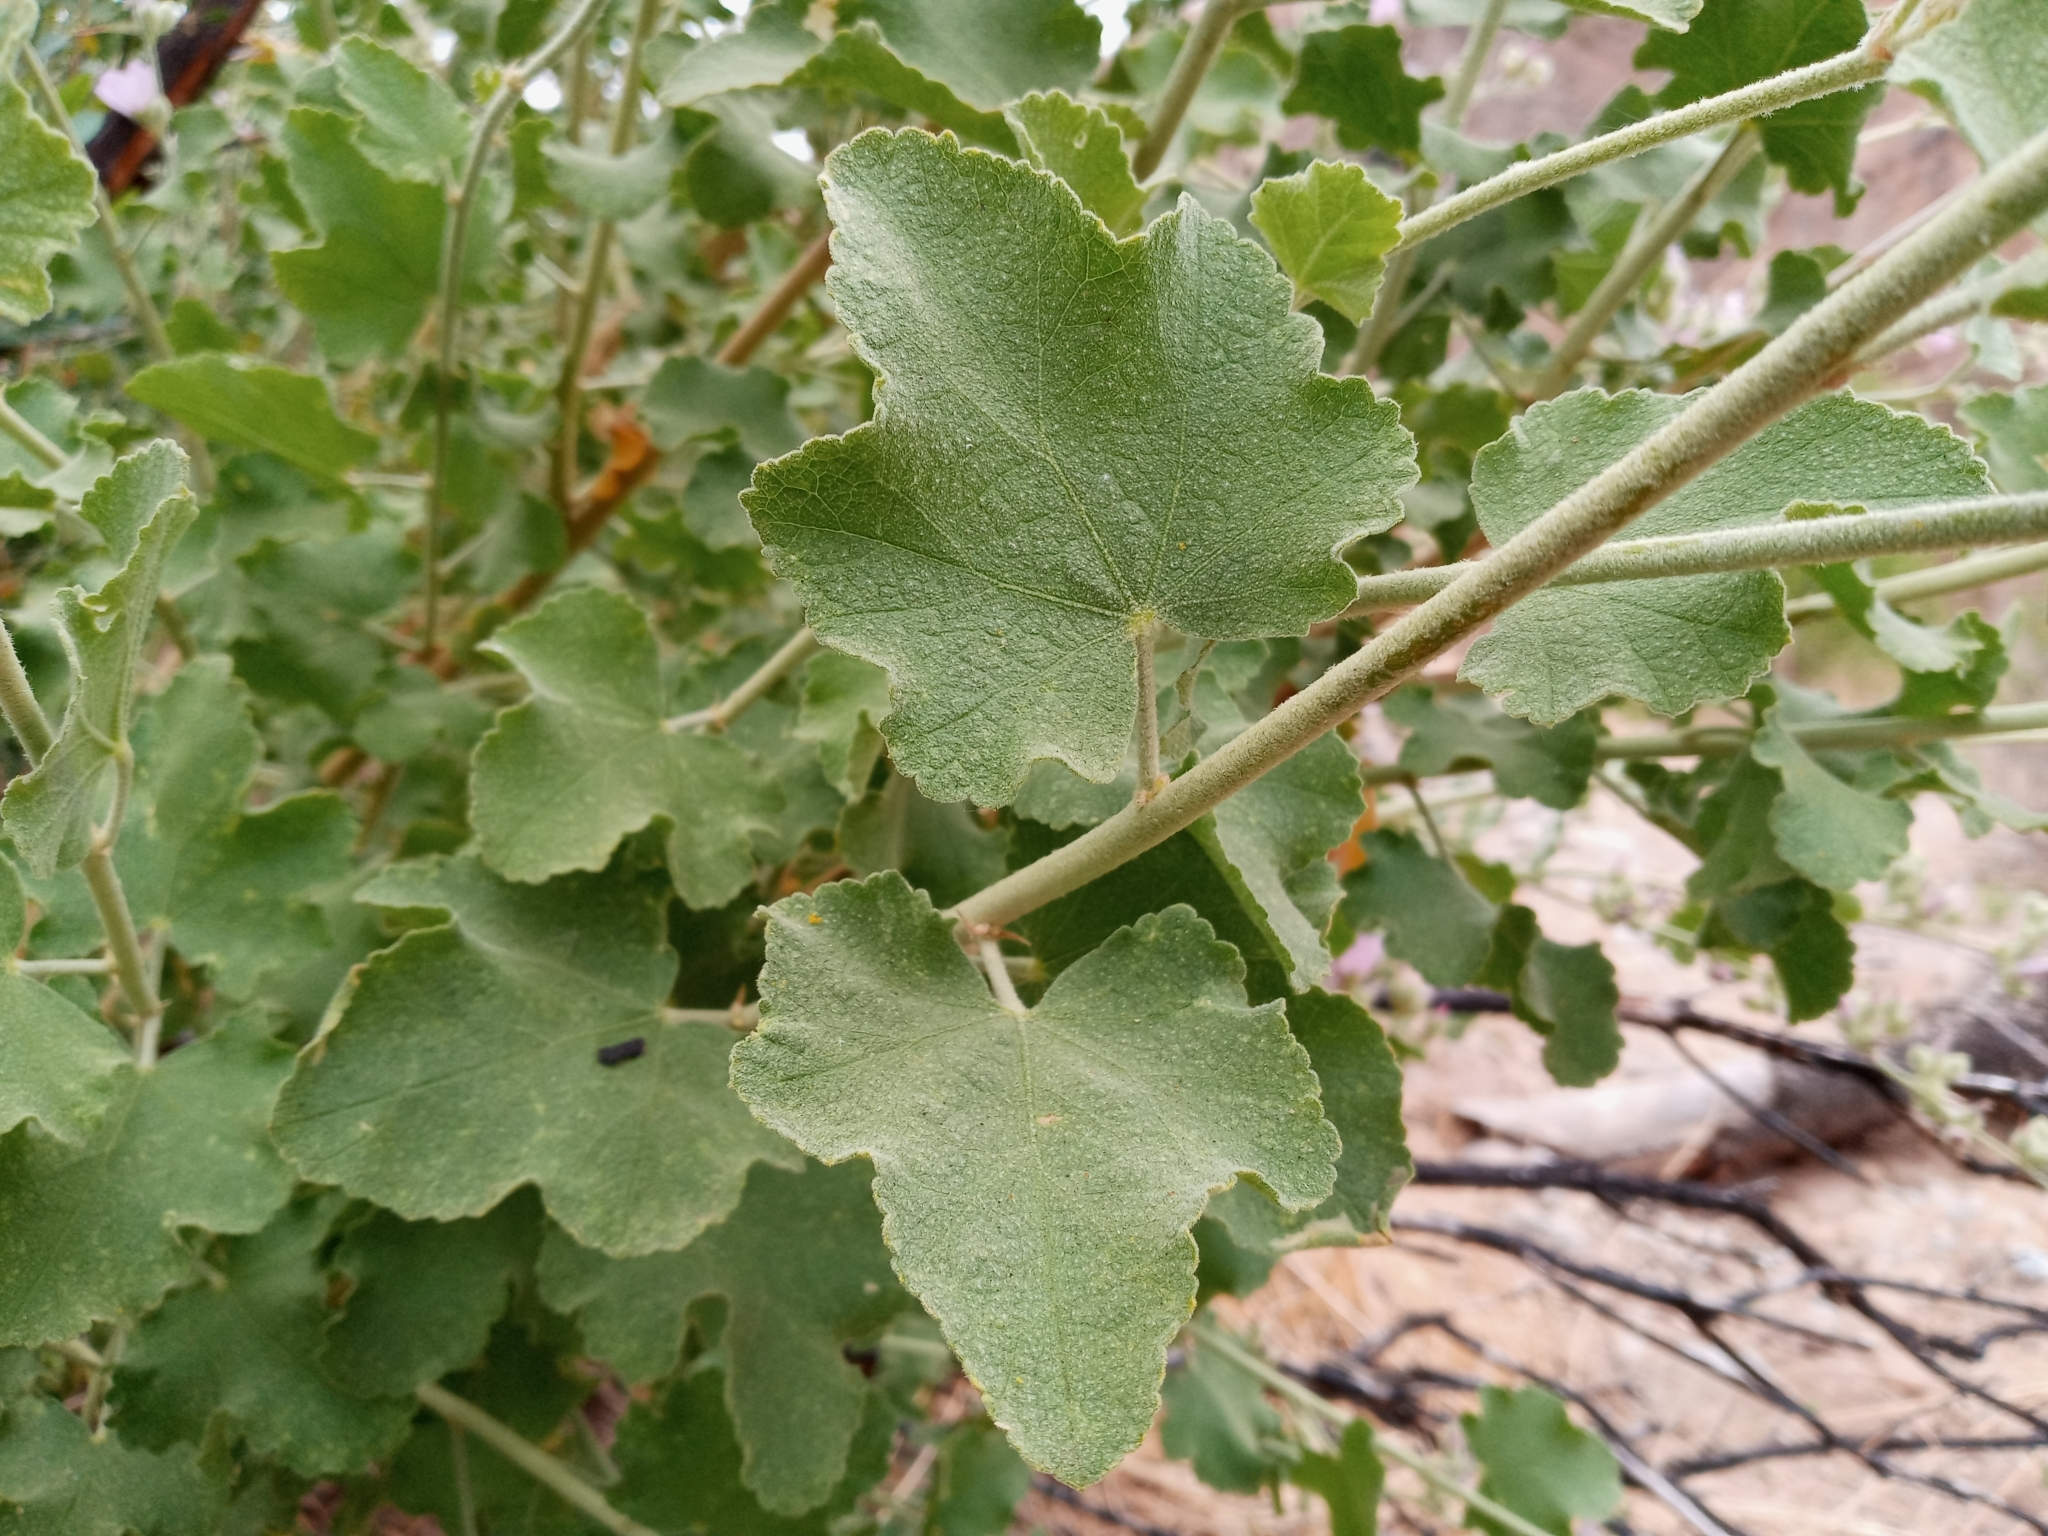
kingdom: Plantae
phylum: Tracheophyta
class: Magnoliopsida
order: Malvales
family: Malvaceae
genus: Malacothamnus
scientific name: Malacothamnus fremontii
